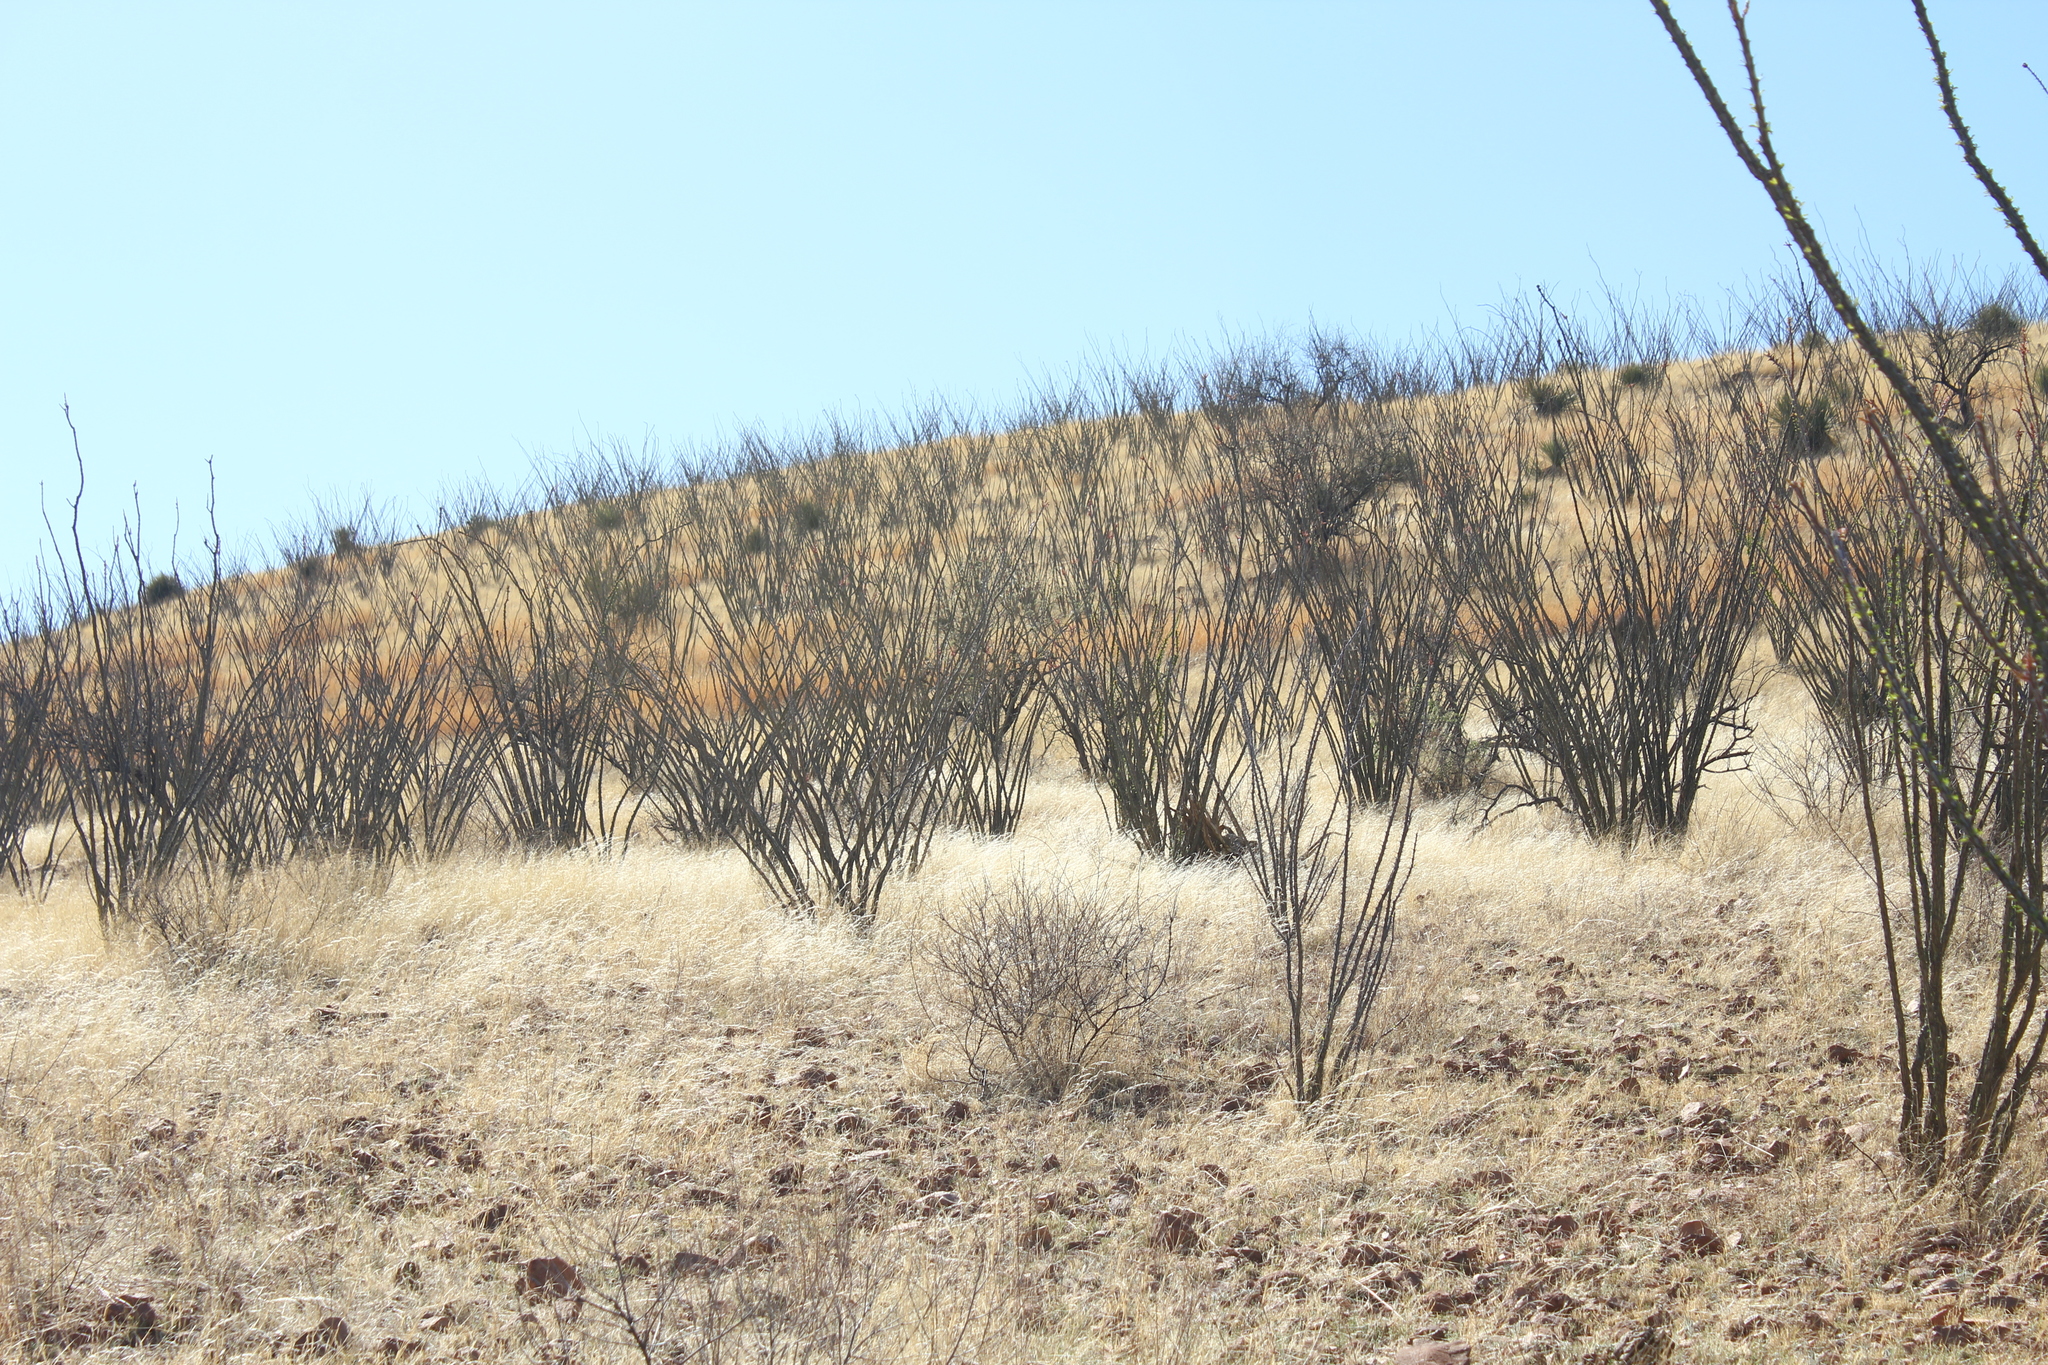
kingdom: Plantae
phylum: Tracheophyta
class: Magnoliopsida
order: Ericales
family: Fouquieriaceae
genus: Fouquieria
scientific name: Fouquieria splendens
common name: Vine-cactus
